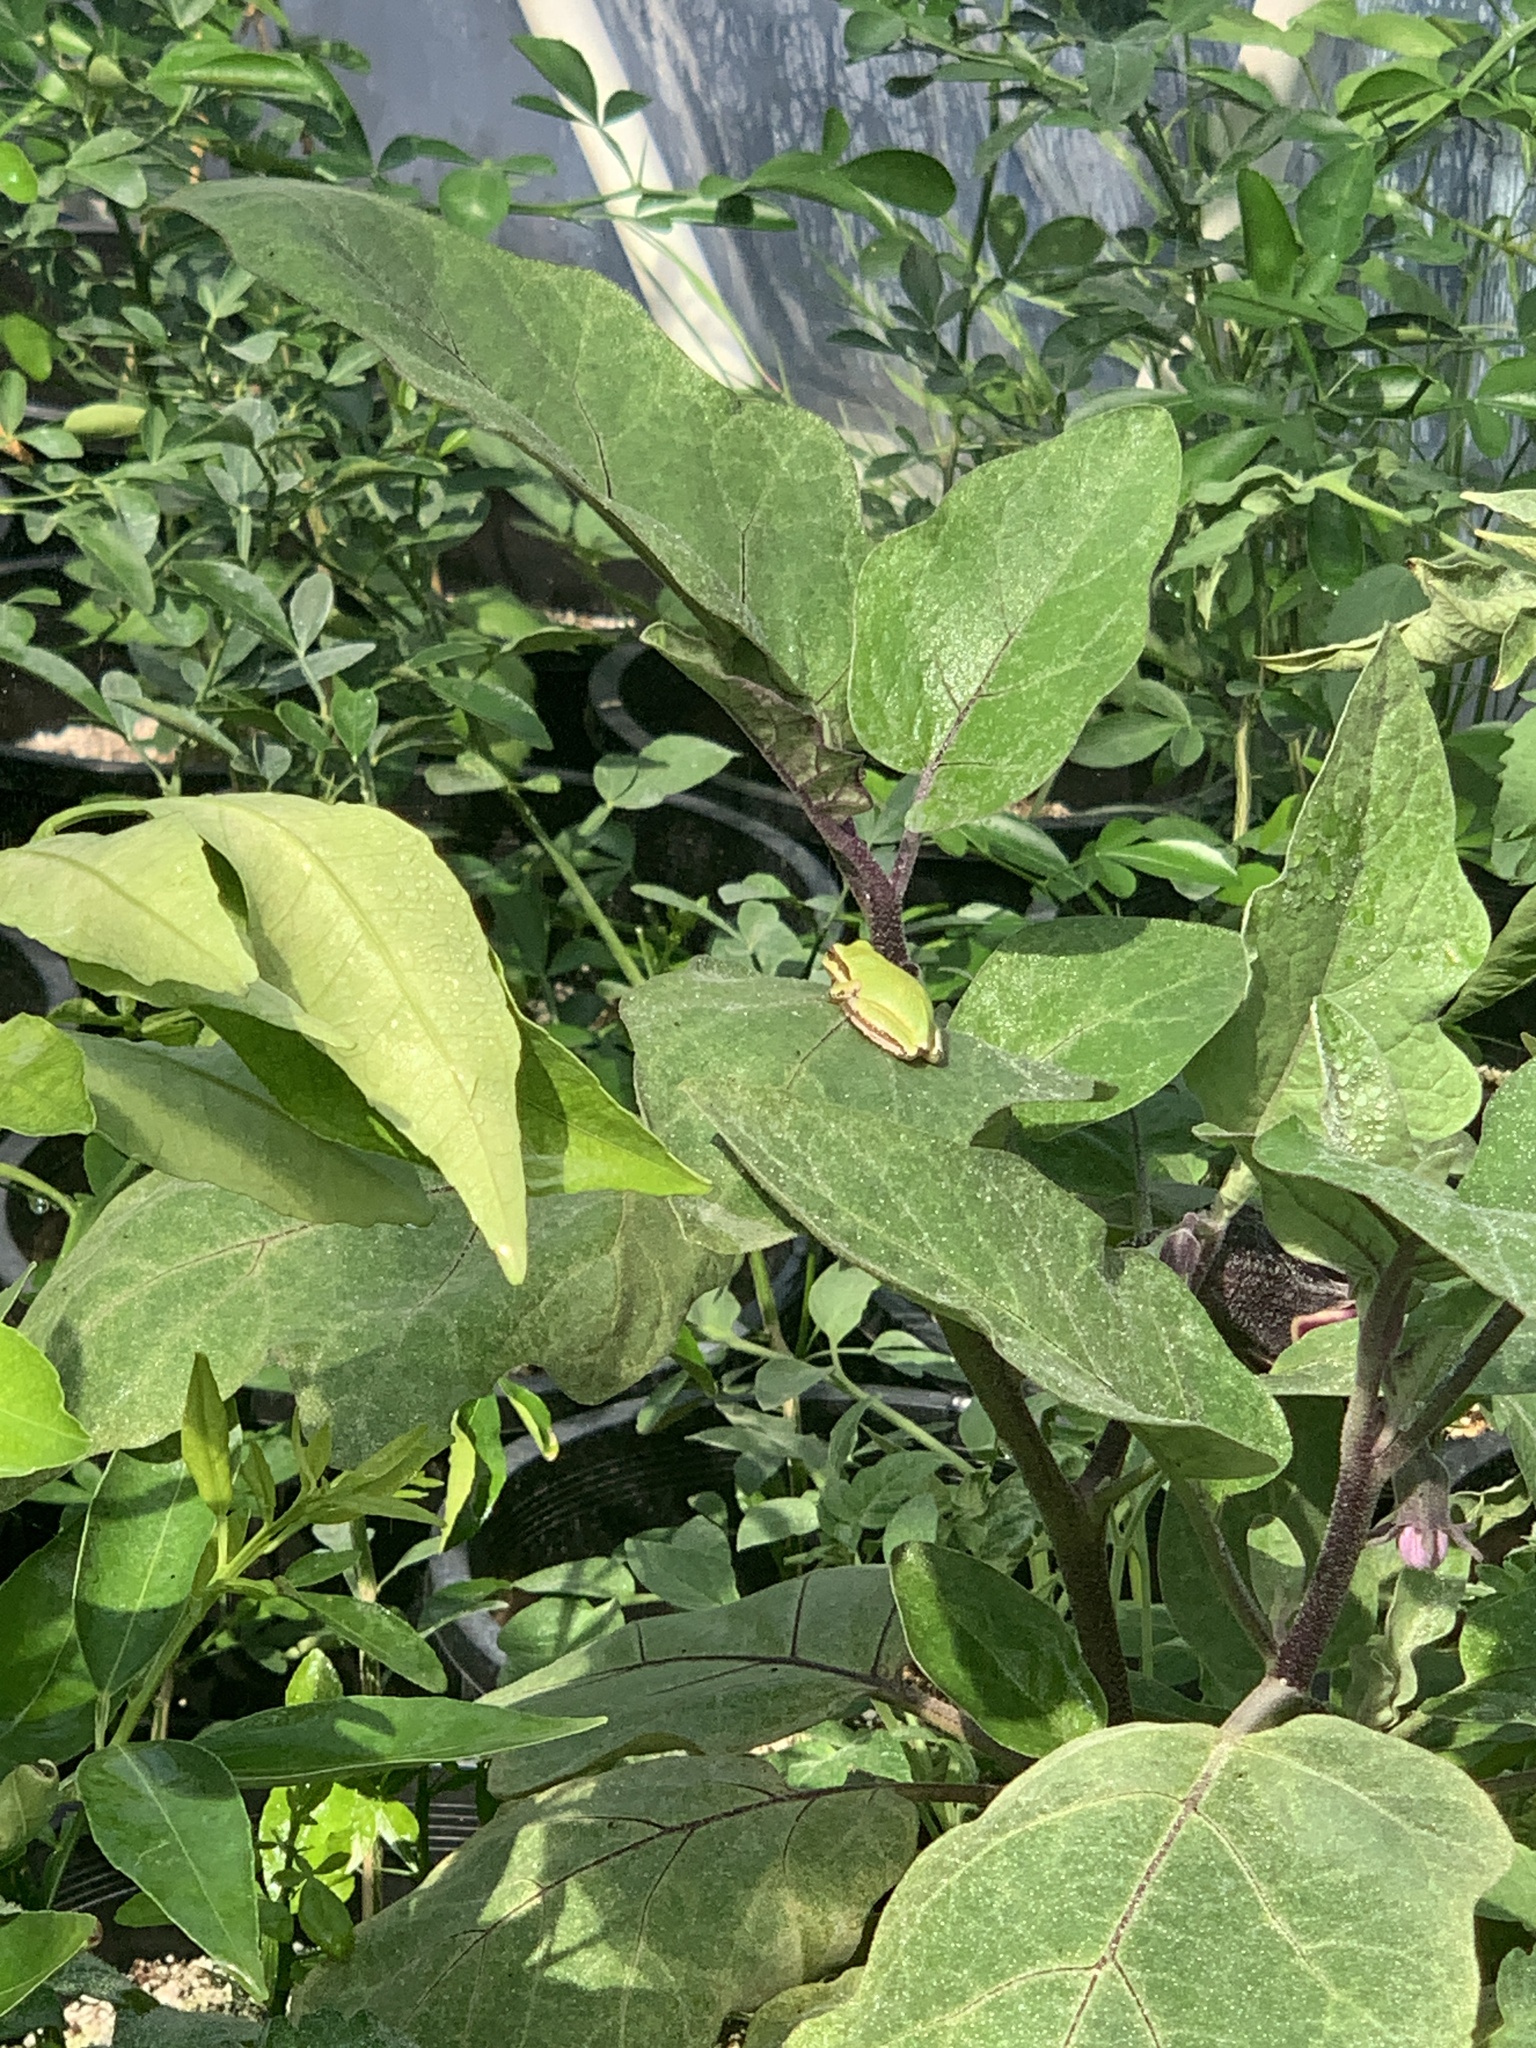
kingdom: Animalia
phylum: Chordata
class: Amphibia
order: Anura
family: Hylidae
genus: Pseudacris
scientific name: Pseudacris regilla
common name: Pacific chorus frog
